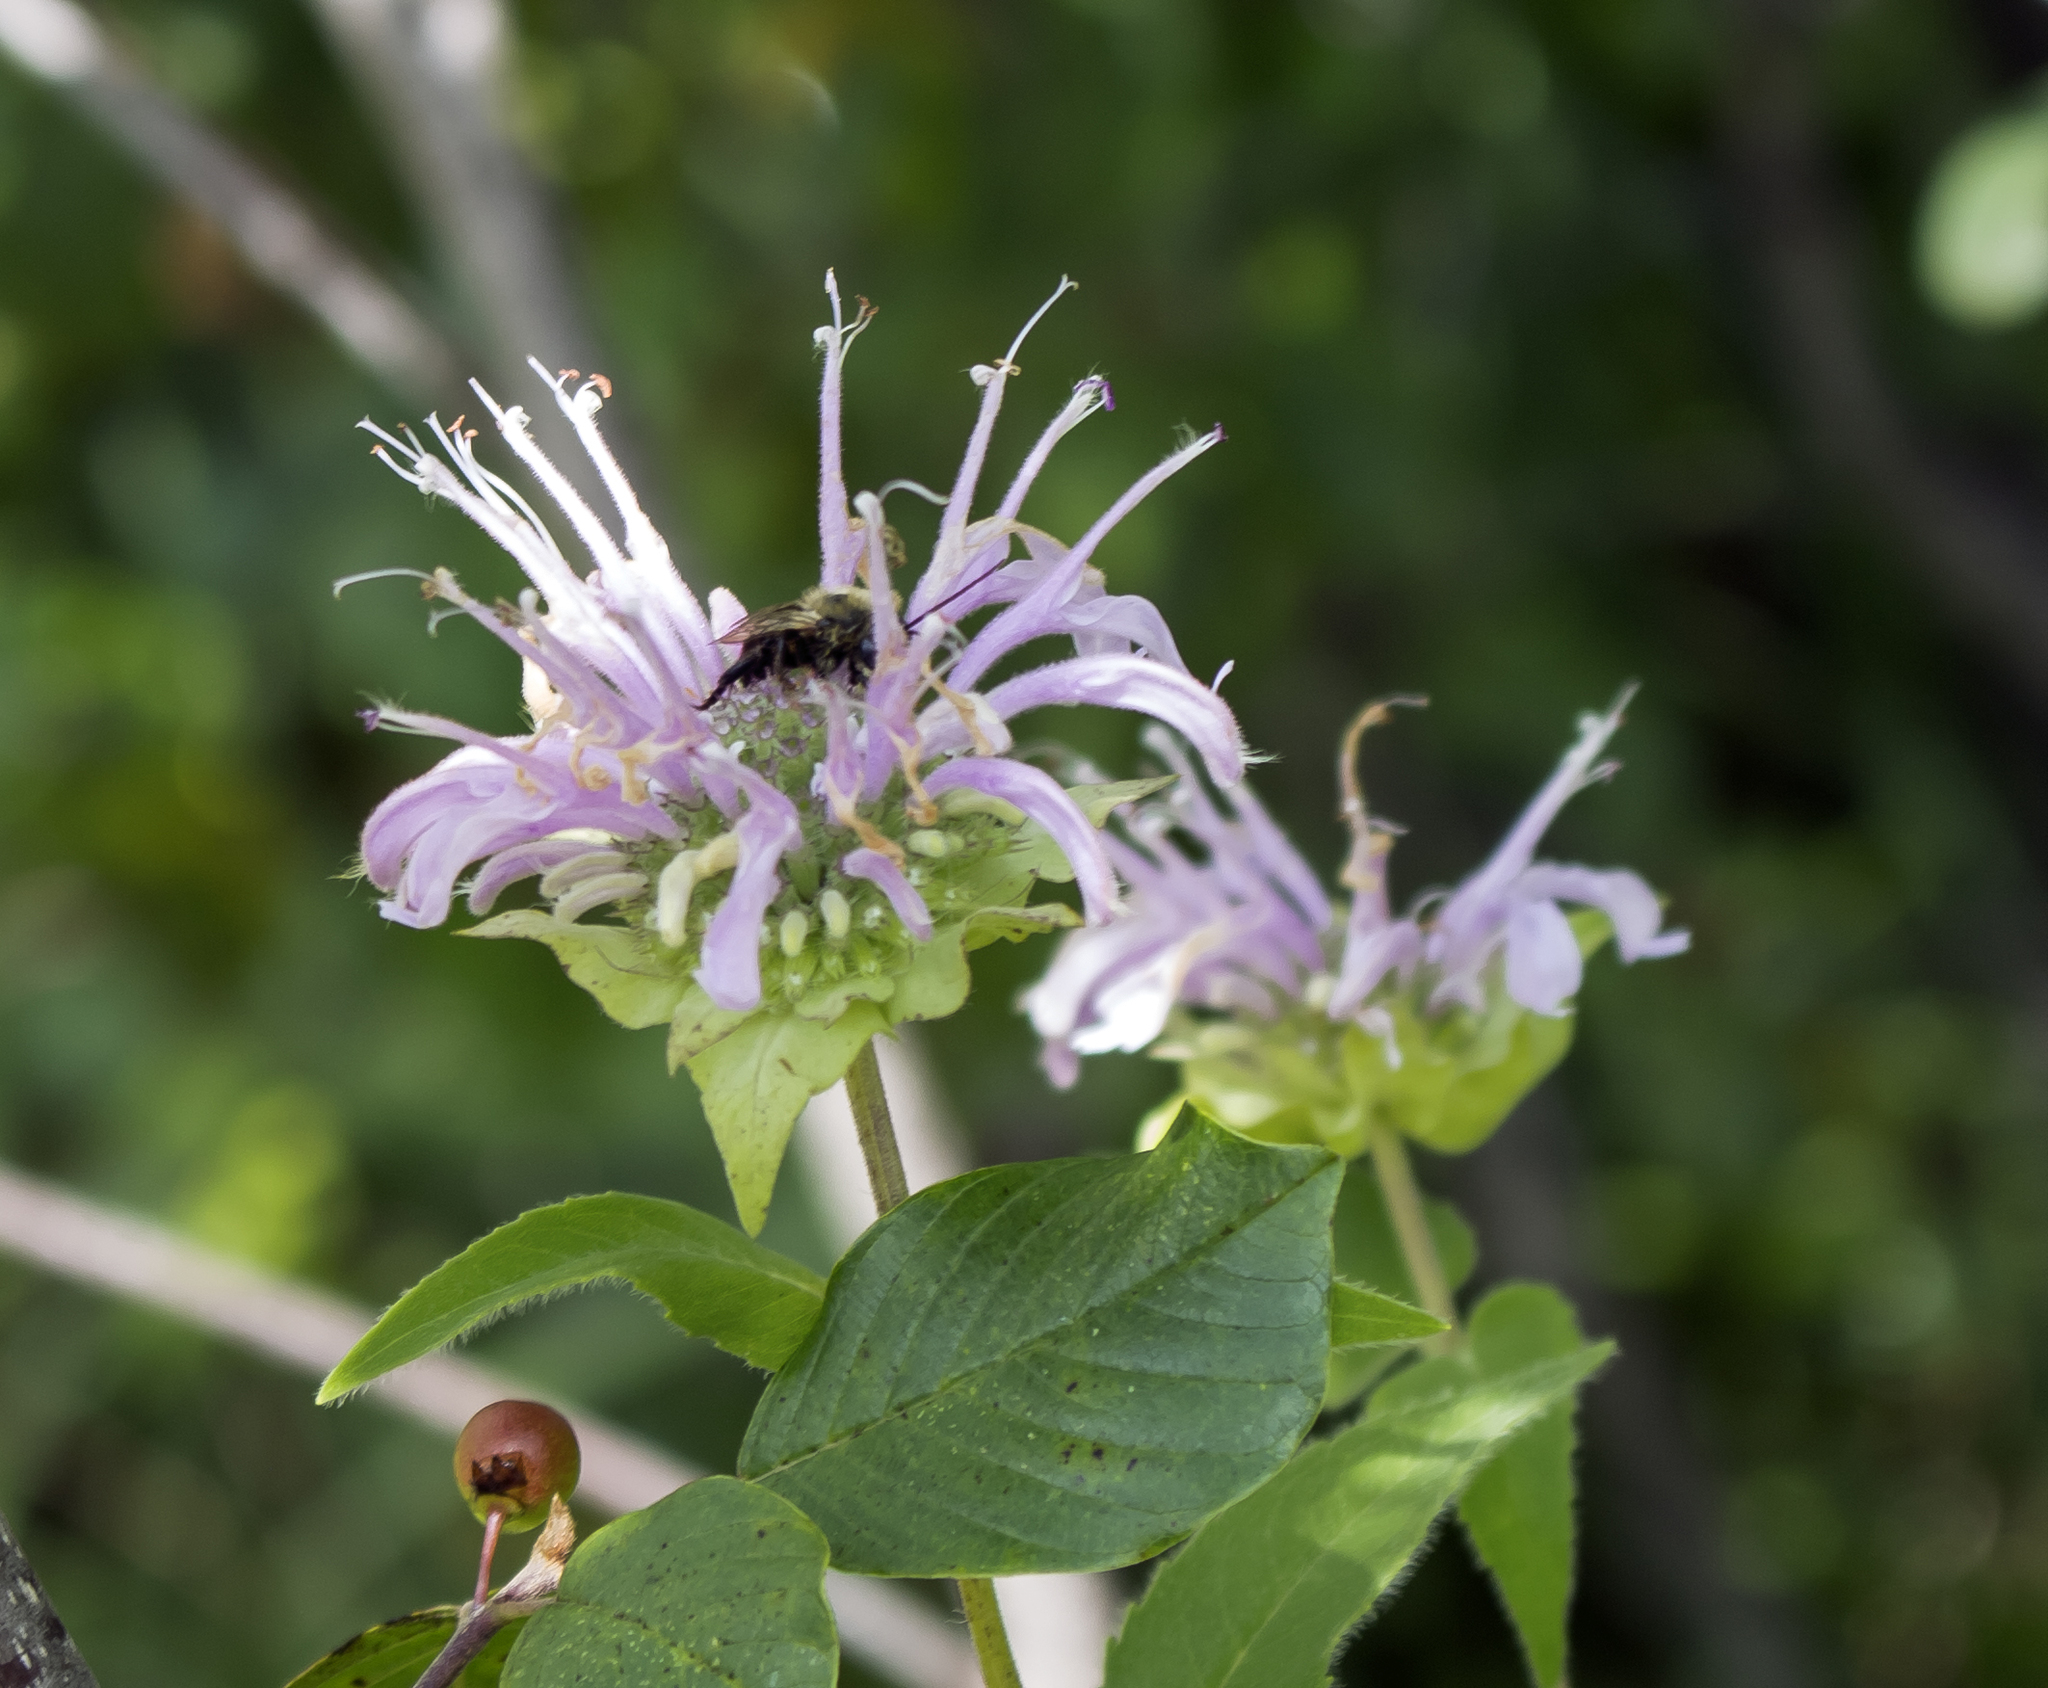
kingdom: Plantae
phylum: Tracheophyta
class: Magnoliopsida
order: Lamiales
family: Lamiaceae
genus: Monarda
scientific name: Monarda fistulosa
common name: Purple beebalm
